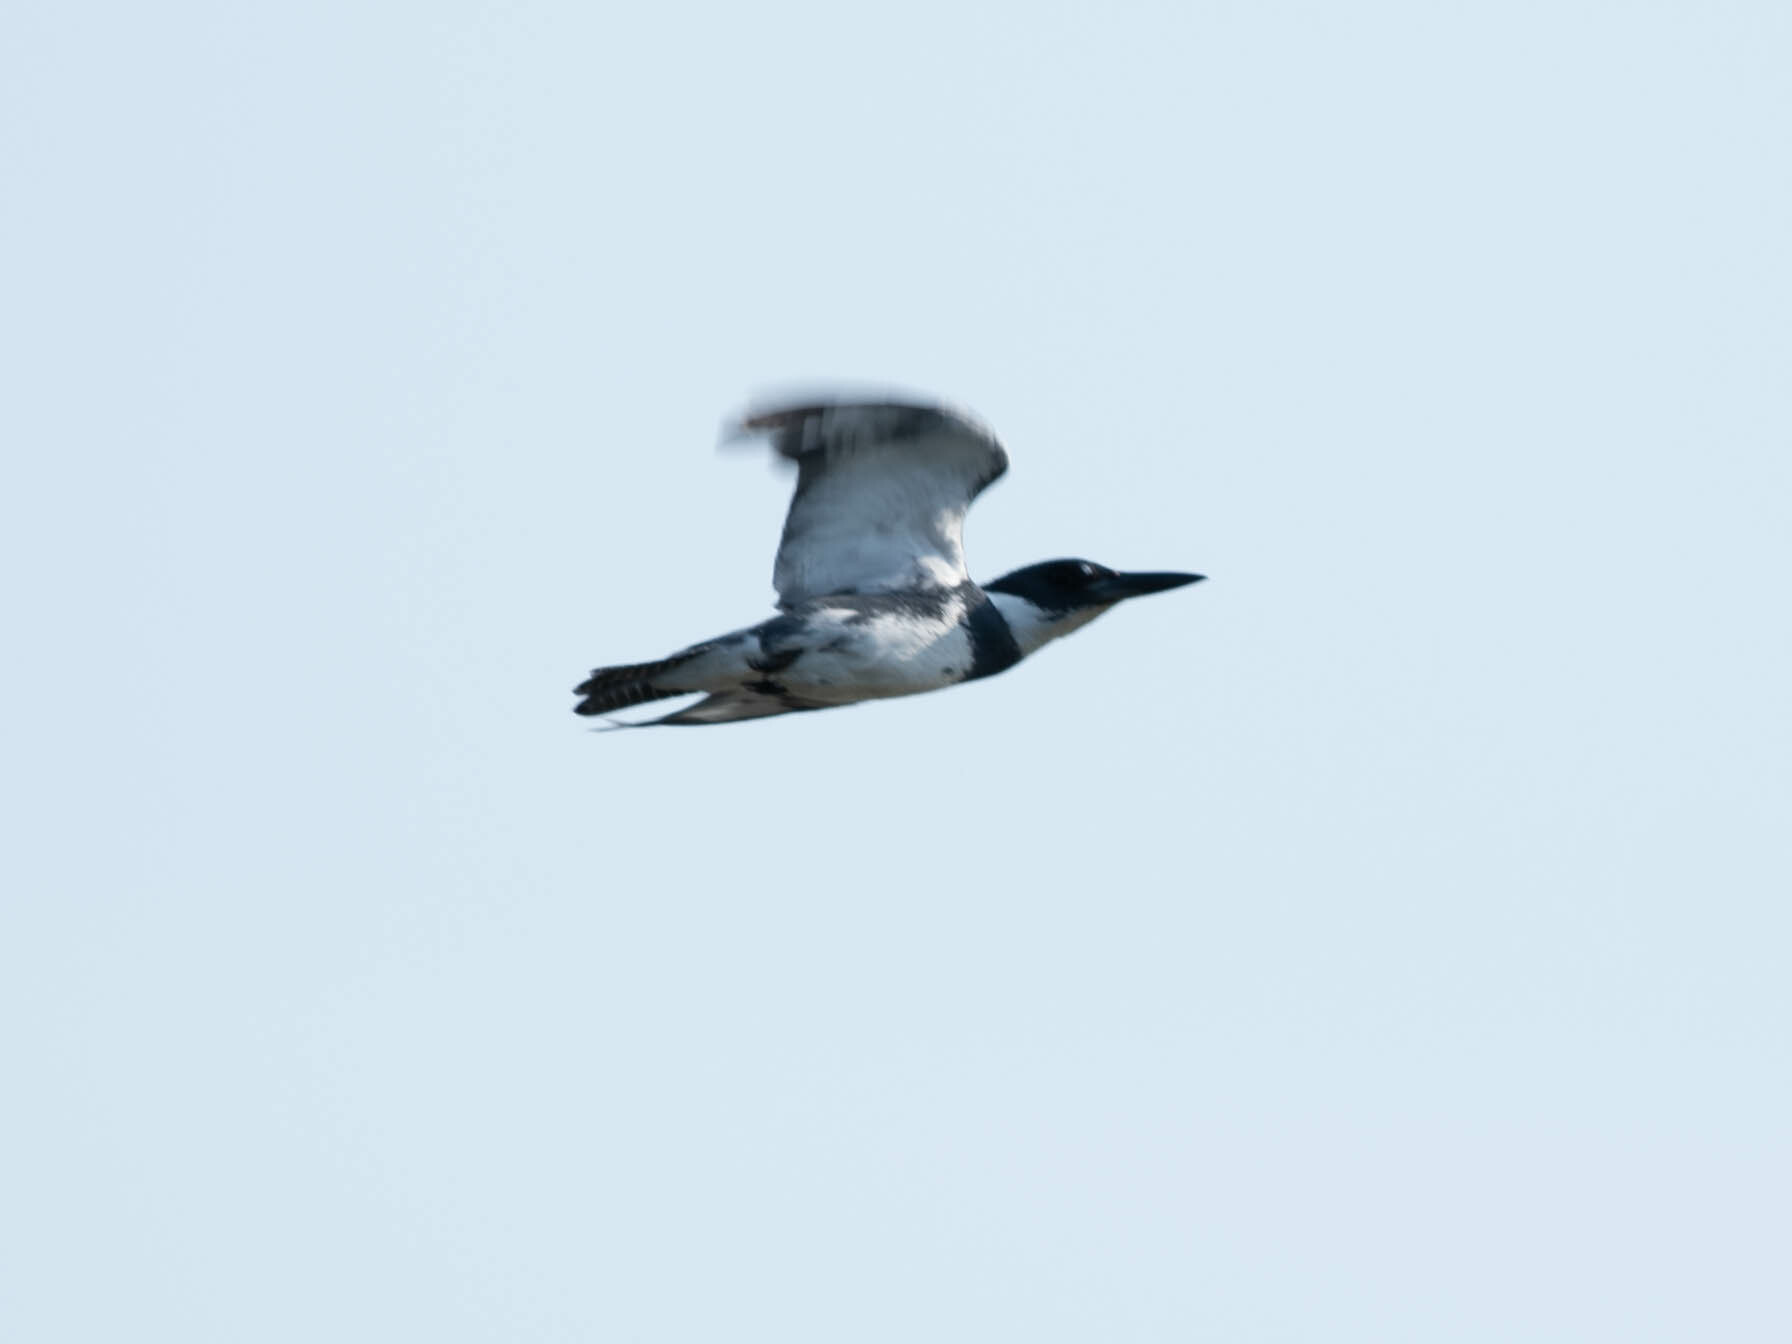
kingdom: Animalia
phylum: Chordata
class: Aves
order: Coraciiformes
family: Alcedinidae
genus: Megaceryle
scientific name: Megaceryle alcyon
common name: Belted kingfisher
